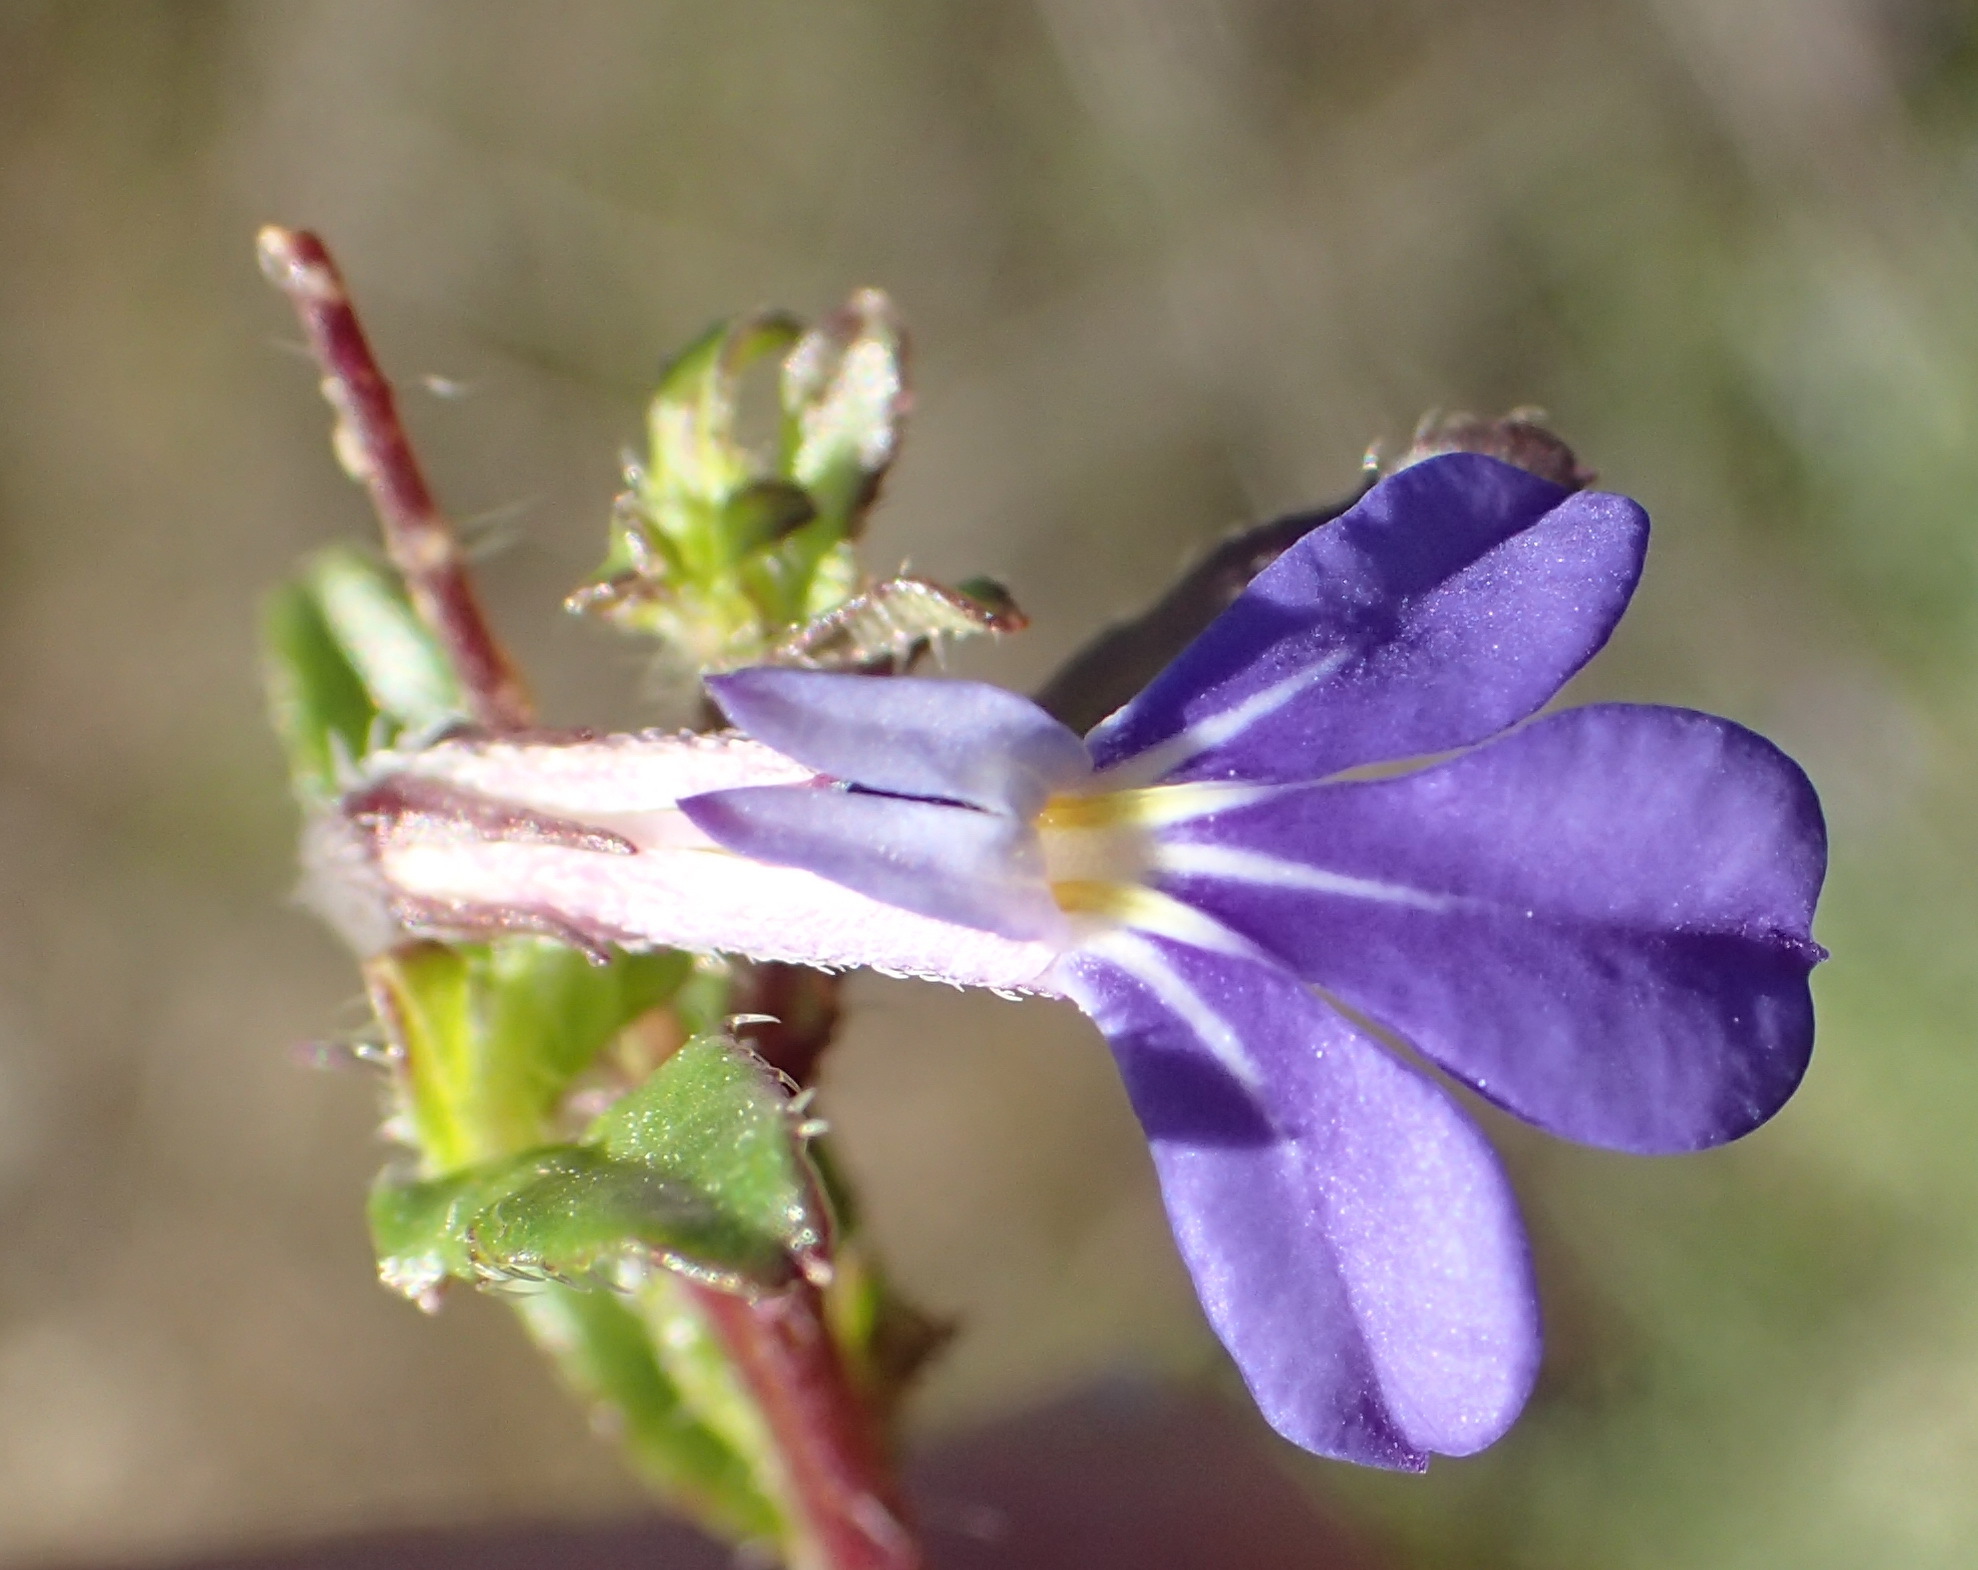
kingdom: Plantae
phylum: Tracheophyta
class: Magnoliopsida
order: Asterales
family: Campanulaceae
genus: Lobelia
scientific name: Lobelia neglecta
